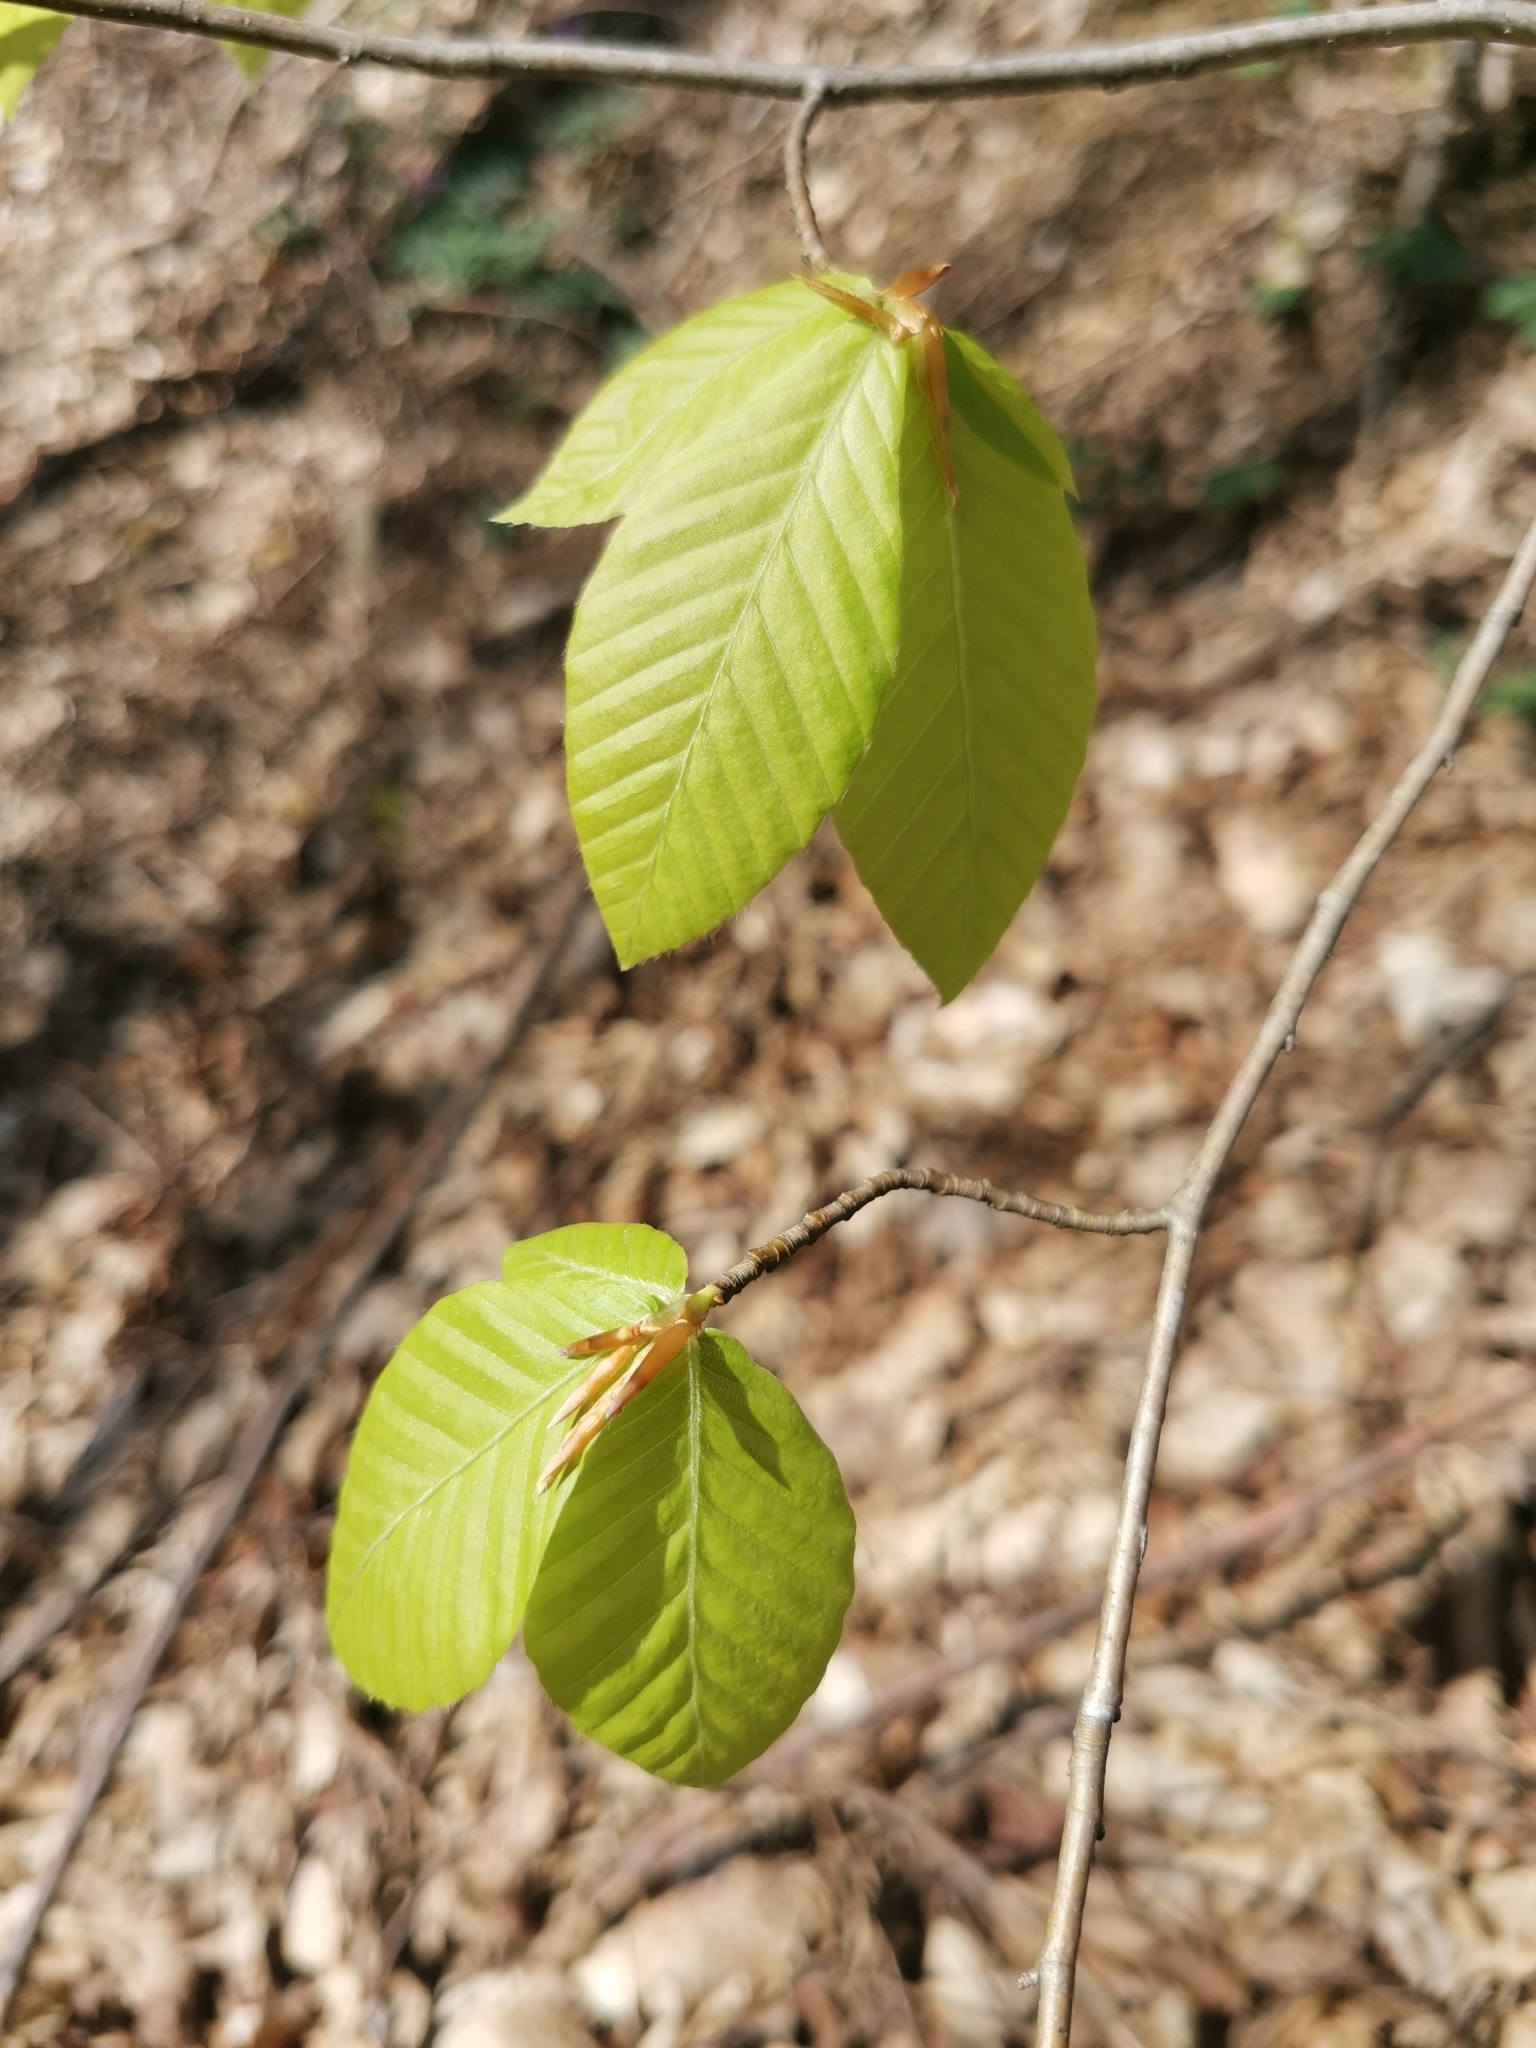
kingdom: Plantae
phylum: Tracheophyta
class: Magnoliopsida
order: Fagales
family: Fagaceae
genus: Fagus
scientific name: Fagus orientalis
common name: Oriental beech
